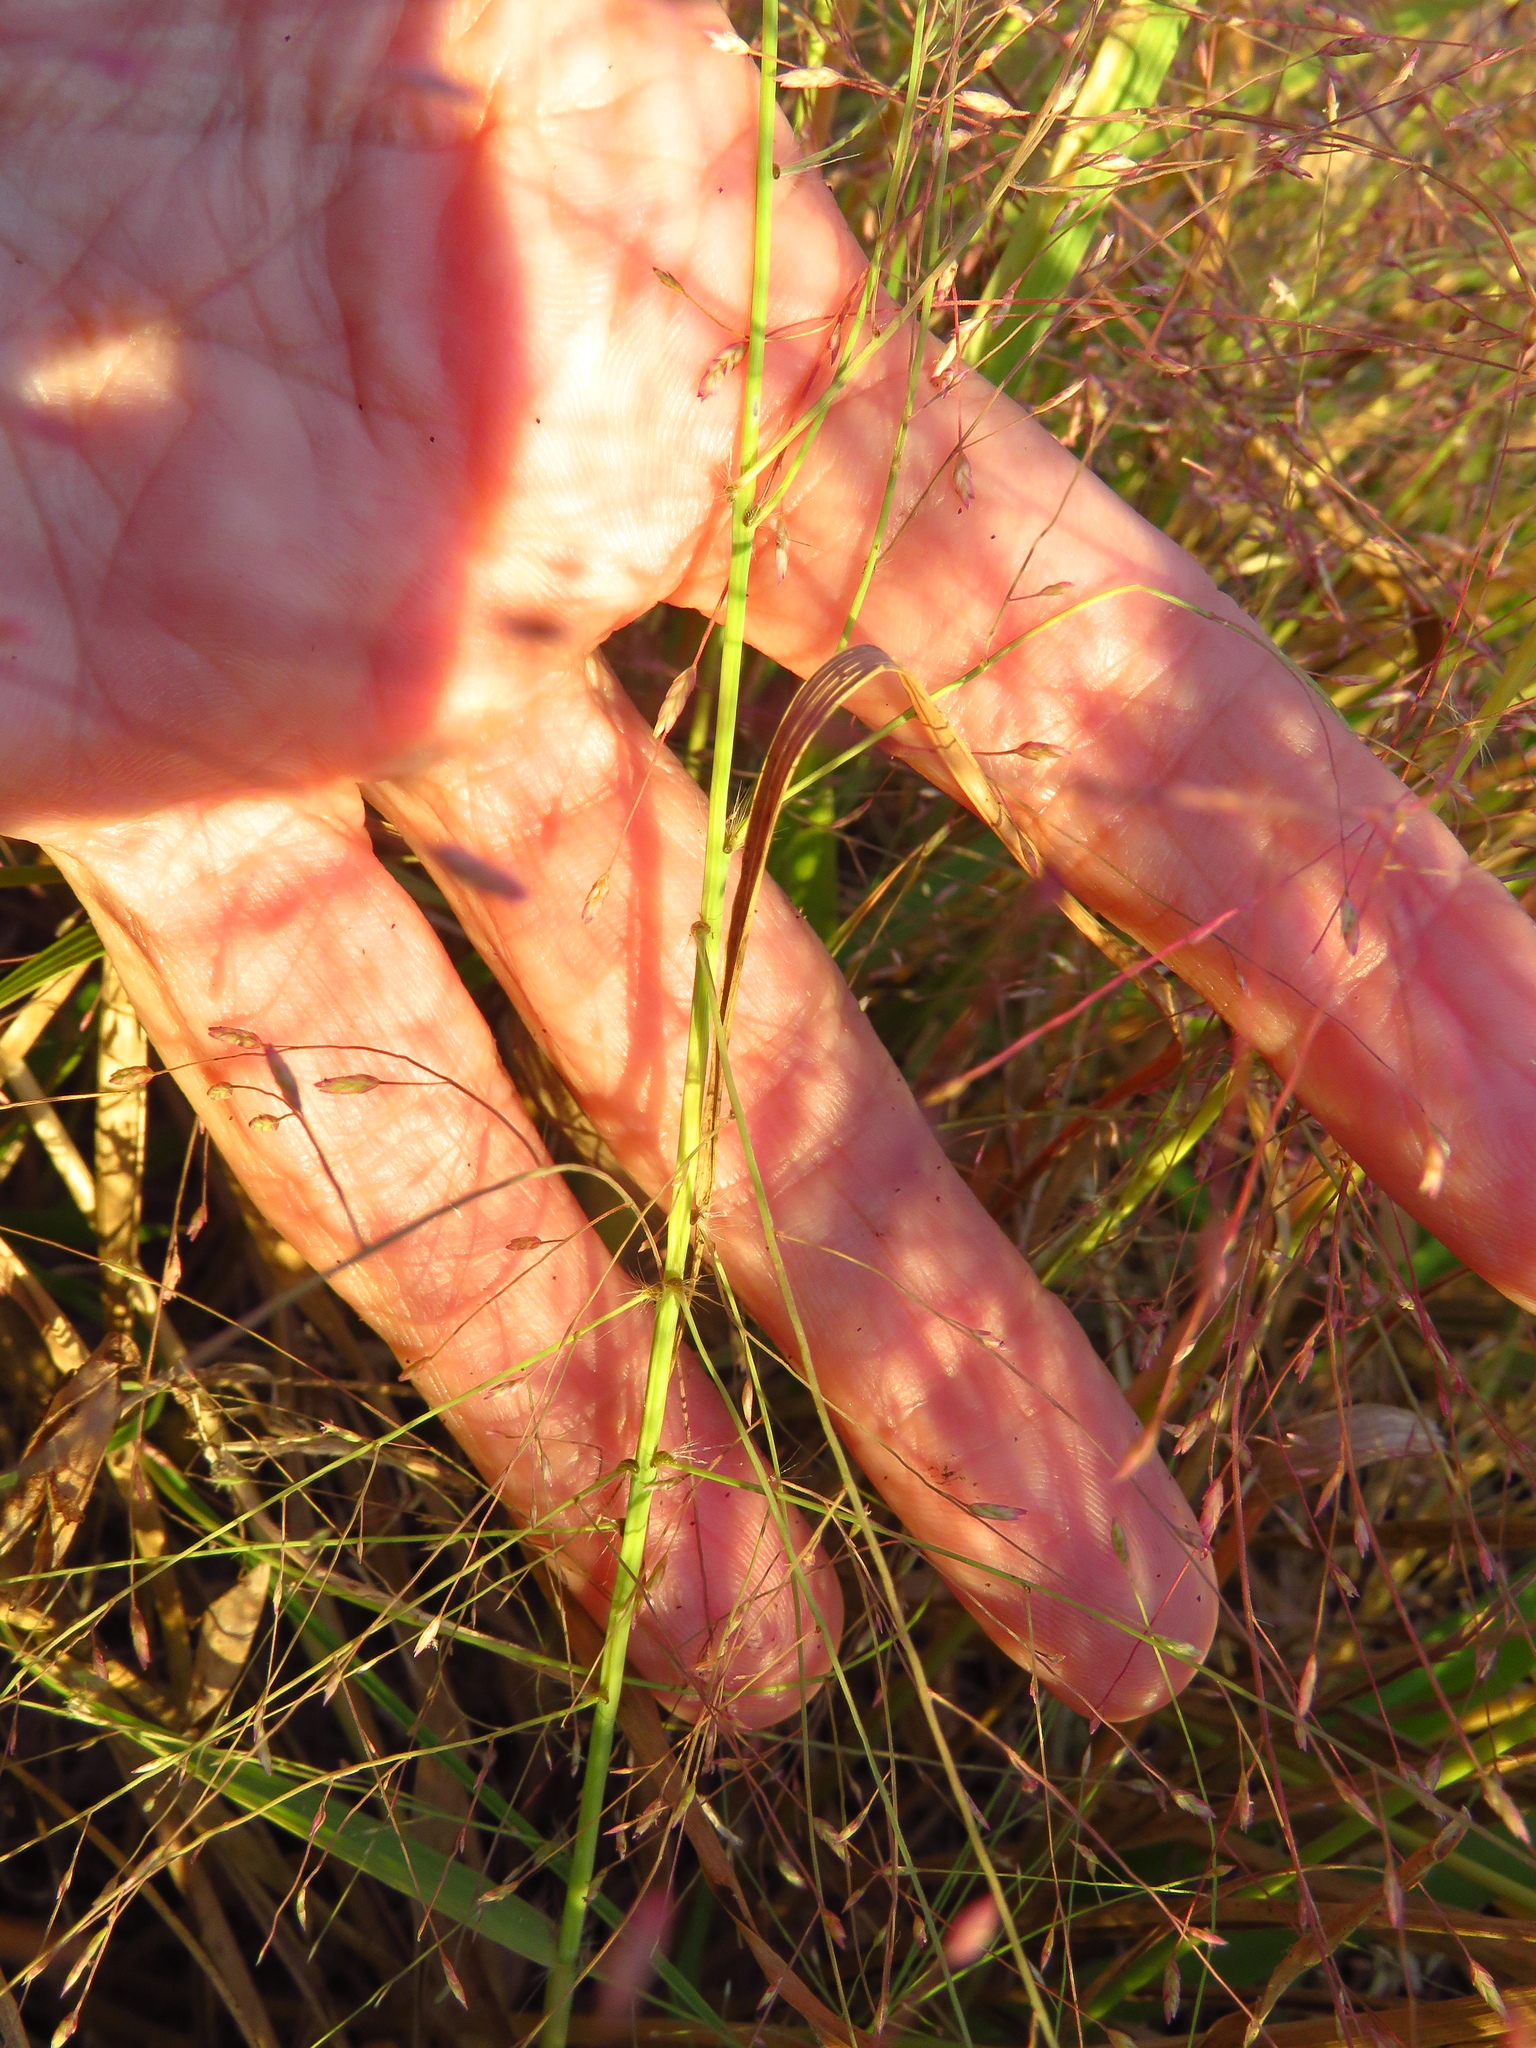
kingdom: Plantae
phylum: Tracheophyta
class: Liliopsida
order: Poales
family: Poaceae
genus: Eragrostis
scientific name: Eragrostis spectabilis
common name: Petticoat-climber
